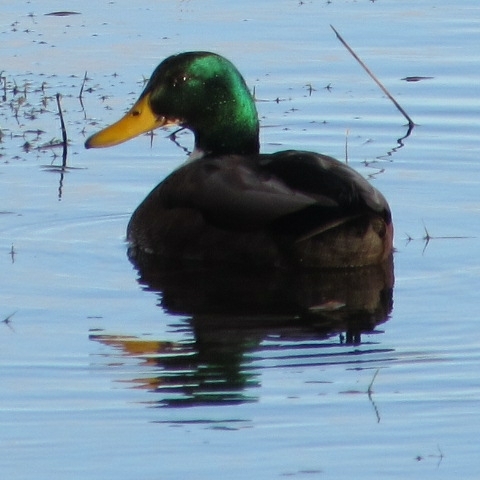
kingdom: Animalia
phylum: Chordata
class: Aves
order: Anseriformes
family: Anatidae
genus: Anas
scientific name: Anas platyrhynchos
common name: Mallard
